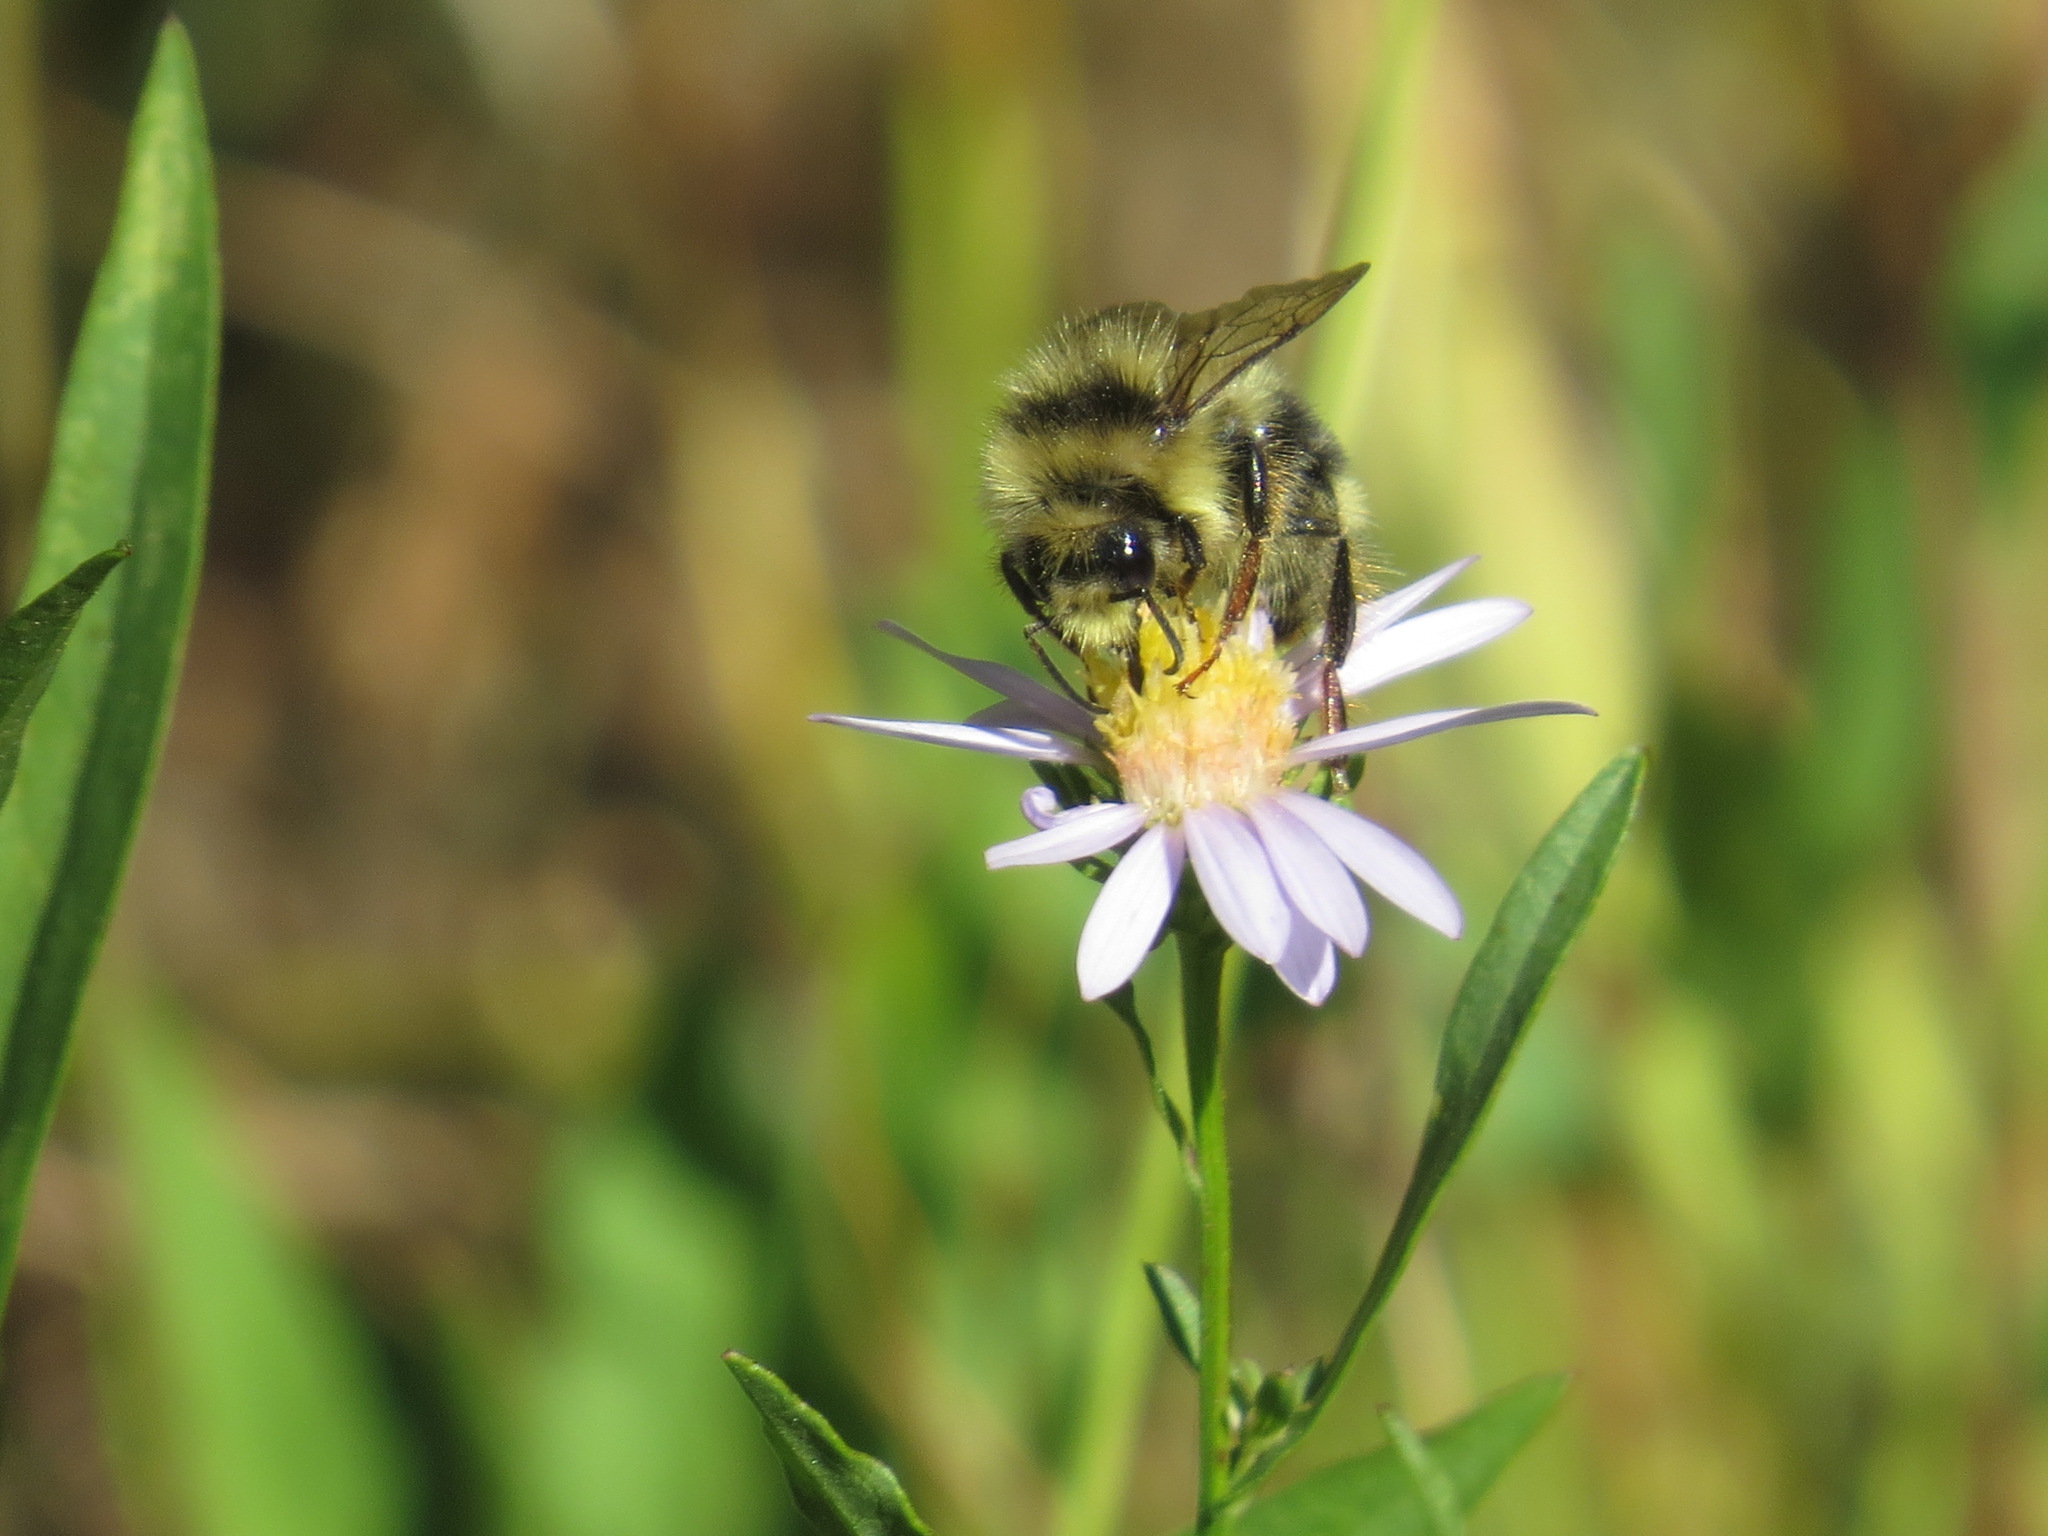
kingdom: Animalia
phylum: Arthropoda
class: Insecta
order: Hymenoptera
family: Apidae
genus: Bombus
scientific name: Bombus melanopygus
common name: Black tail bumble bee
